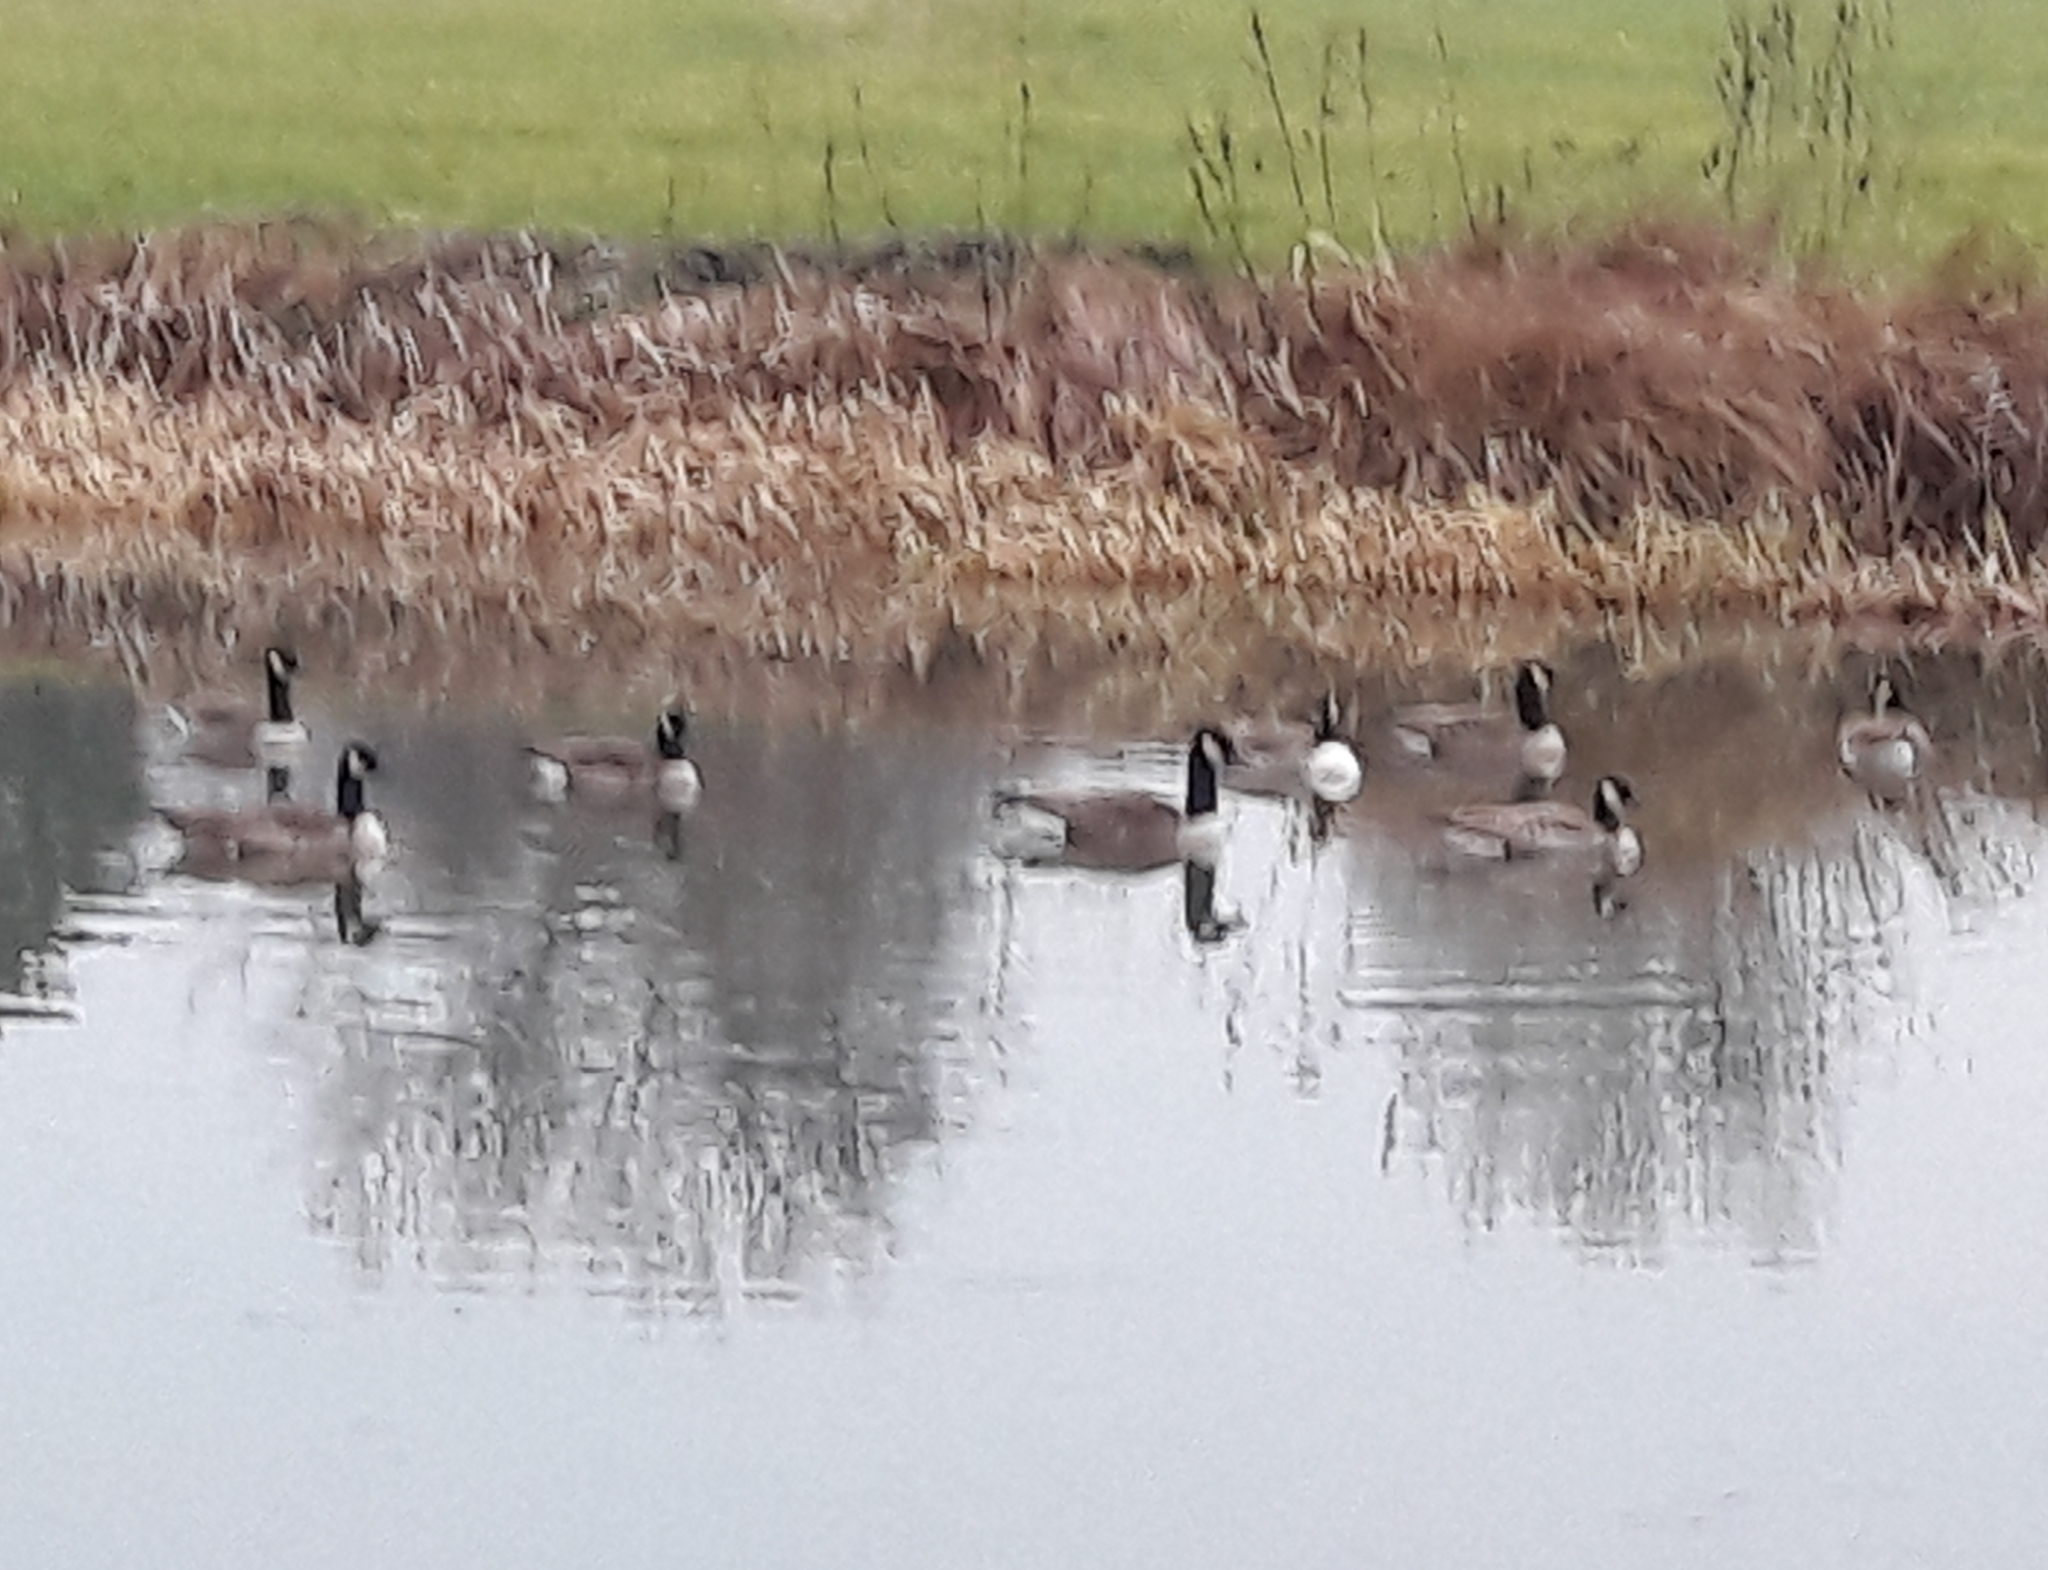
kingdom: Animalia
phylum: Chordata
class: Aves
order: Anseriformes
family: Anatidae
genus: Branta
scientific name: Branta canadensis
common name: Canada goose
